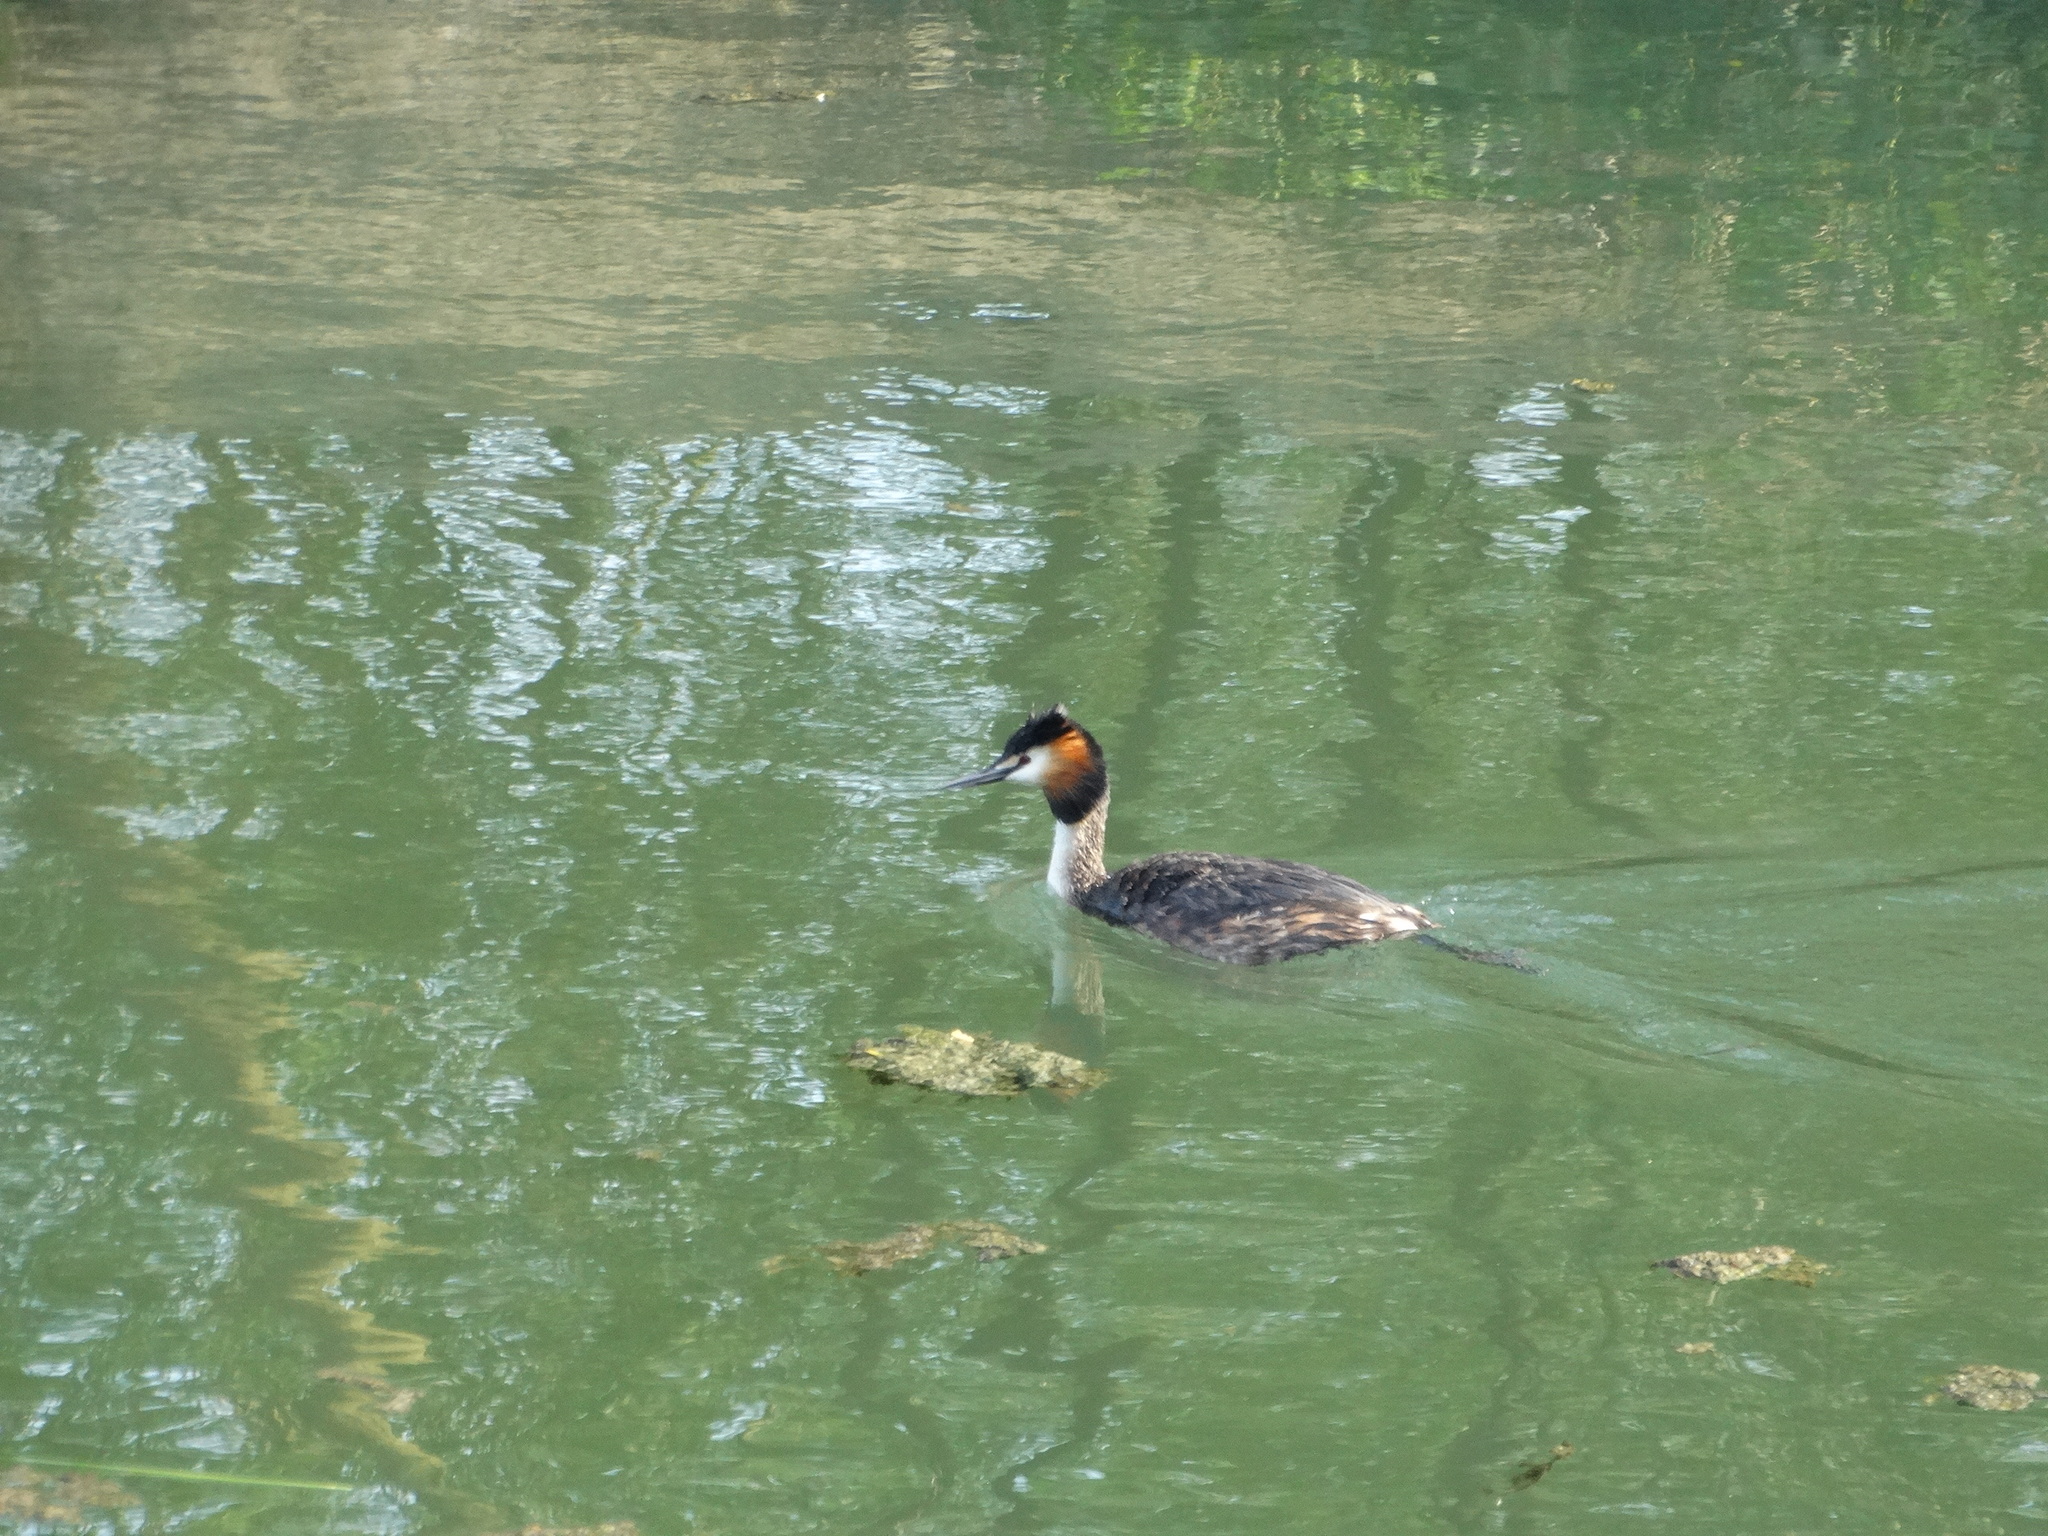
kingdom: Animalia
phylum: Chordata
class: Aves
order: Podicipediformes
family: Podicipedidae
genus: Podiceps
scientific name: Podiceps cristatus
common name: Great crested grebe
